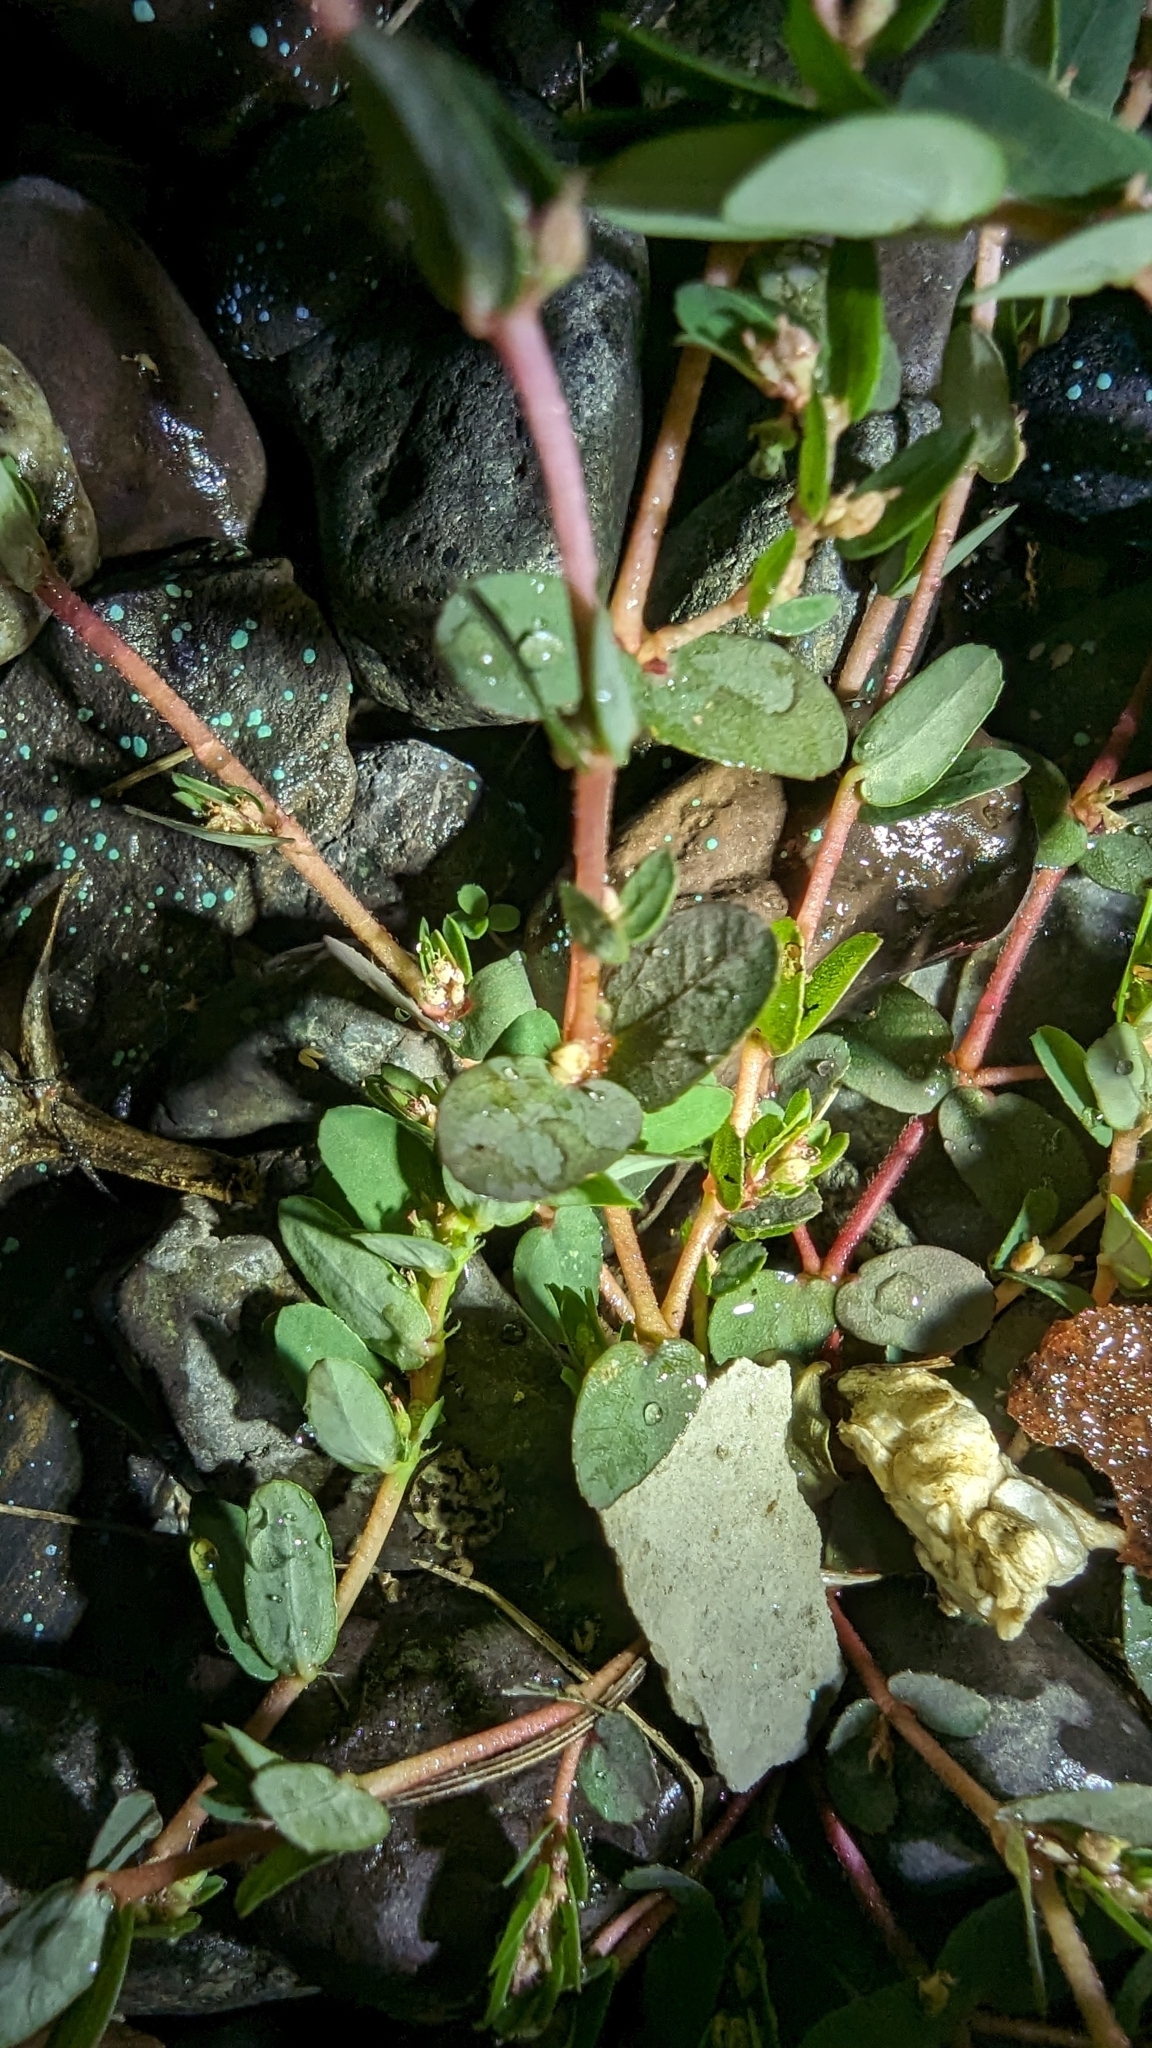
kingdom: Plantae
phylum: Tracheophyta
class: Magnoliopsida
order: Malpighiales
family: Euphorbiaceae
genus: Euphorbia
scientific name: Euphorbia thymifolia
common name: Gulf sandmat
